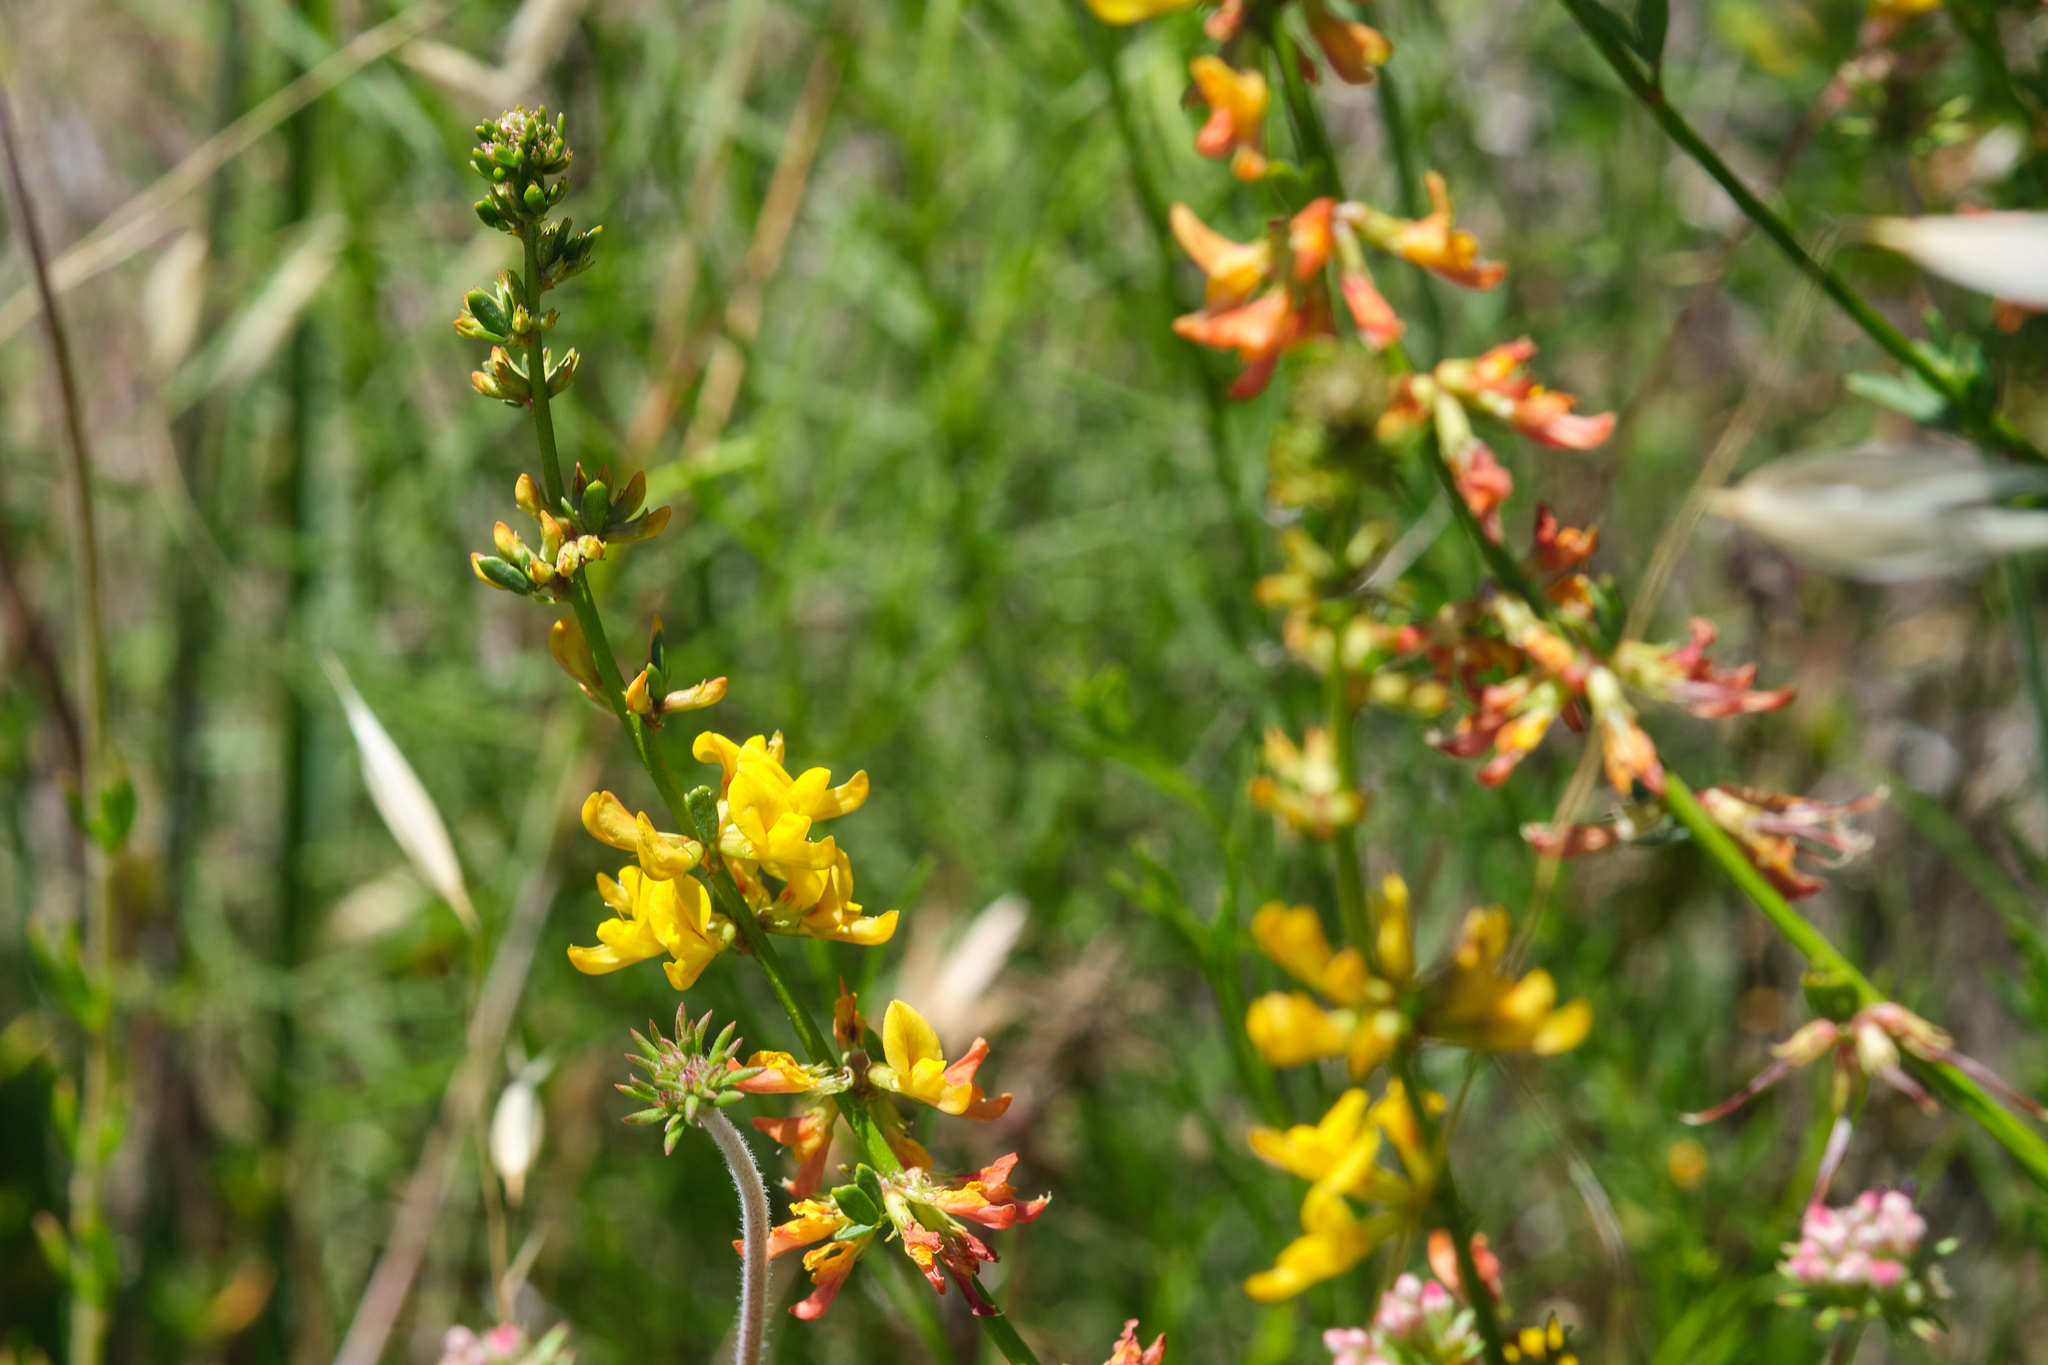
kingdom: Plantae
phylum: Tracheophyta
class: Magnoliopsida
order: Fabales
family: Fabaceae
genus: Acmispon
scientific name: Acmispon glaber
